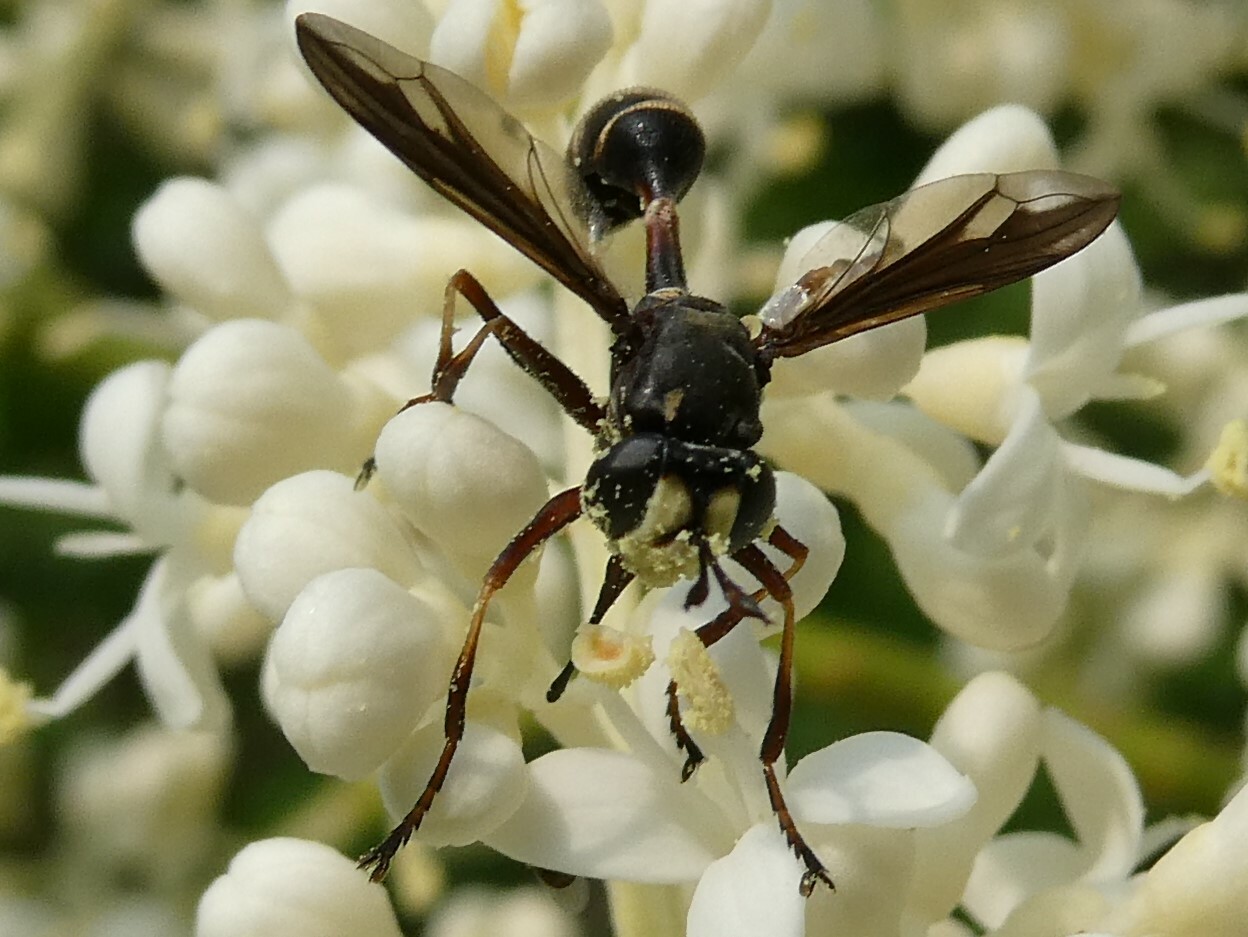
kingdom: Animalia
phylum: Arthropoda
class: Insecta
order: Diptera
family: Conopidae
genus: Physocephala
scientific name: Physocephala furcillata
